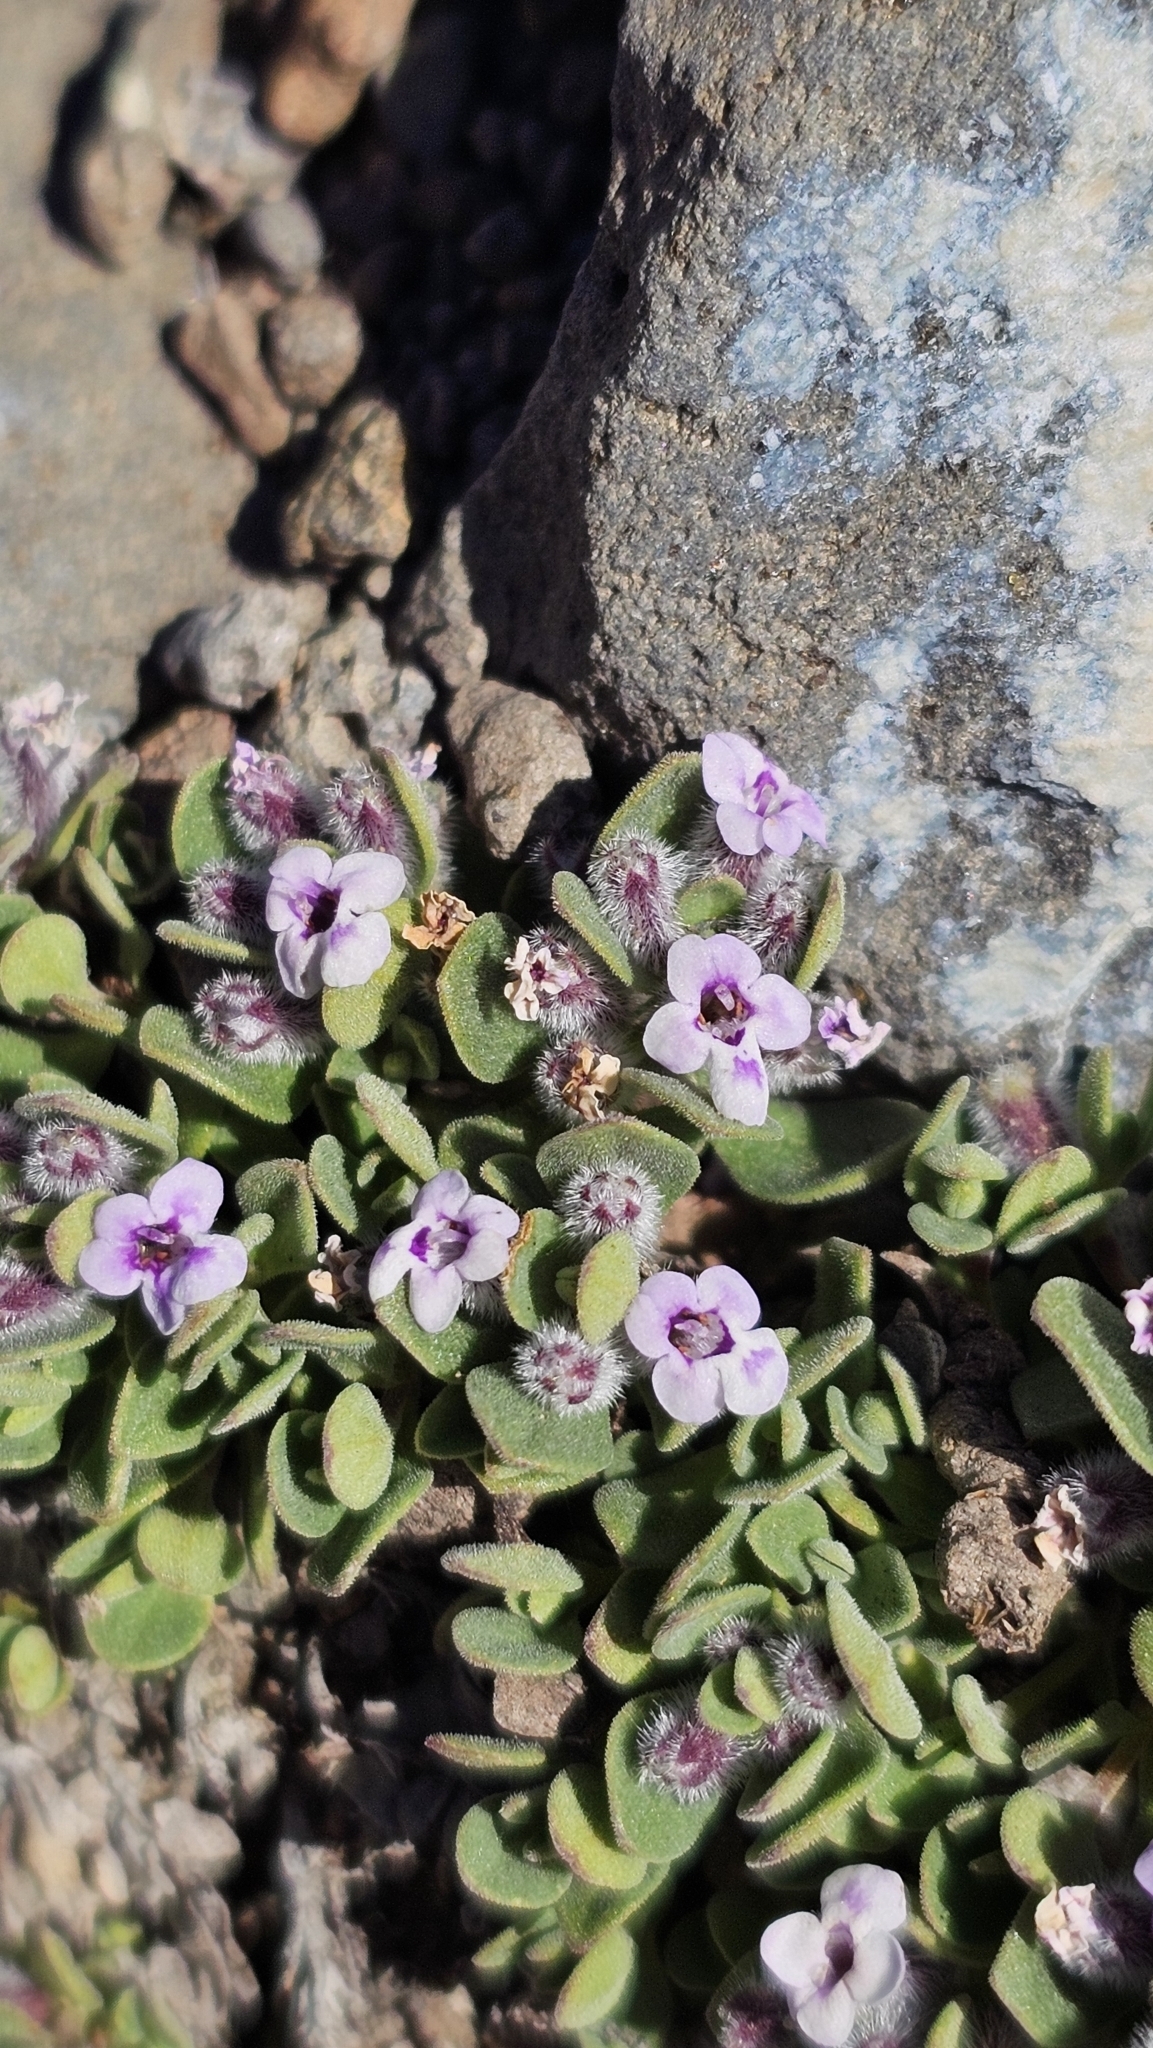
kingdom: Plantae
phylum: Tracheophyta
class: Magnoliopsida
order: Lamiales
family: Lamiaceae
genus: Clinopodium
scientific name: Clinopodium darwinii
